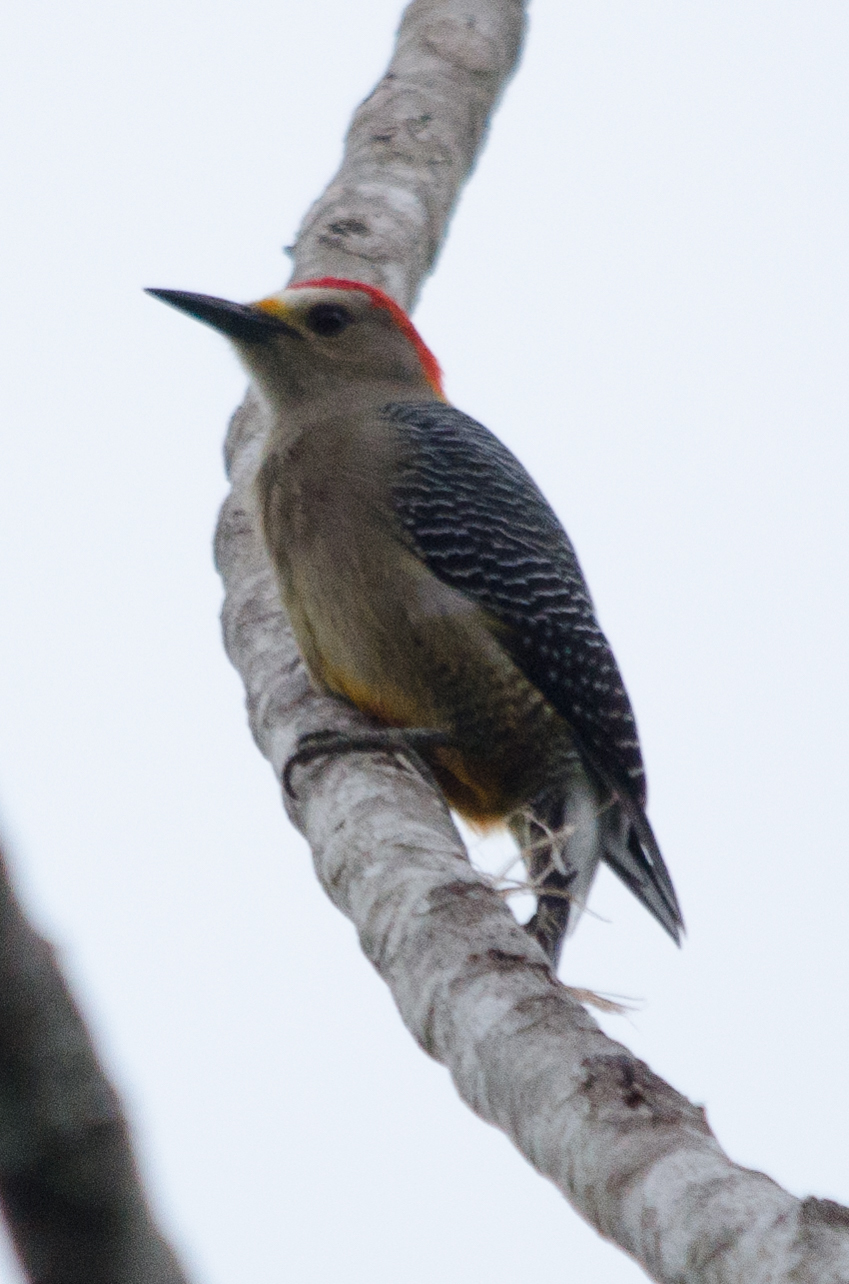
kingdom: Animalia
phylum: Chordata
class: Aves
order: Piciformes
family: Picidae
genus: Melanerpes
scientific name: Melanerpes aurifrons
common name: Golden-fronted woodpecker
